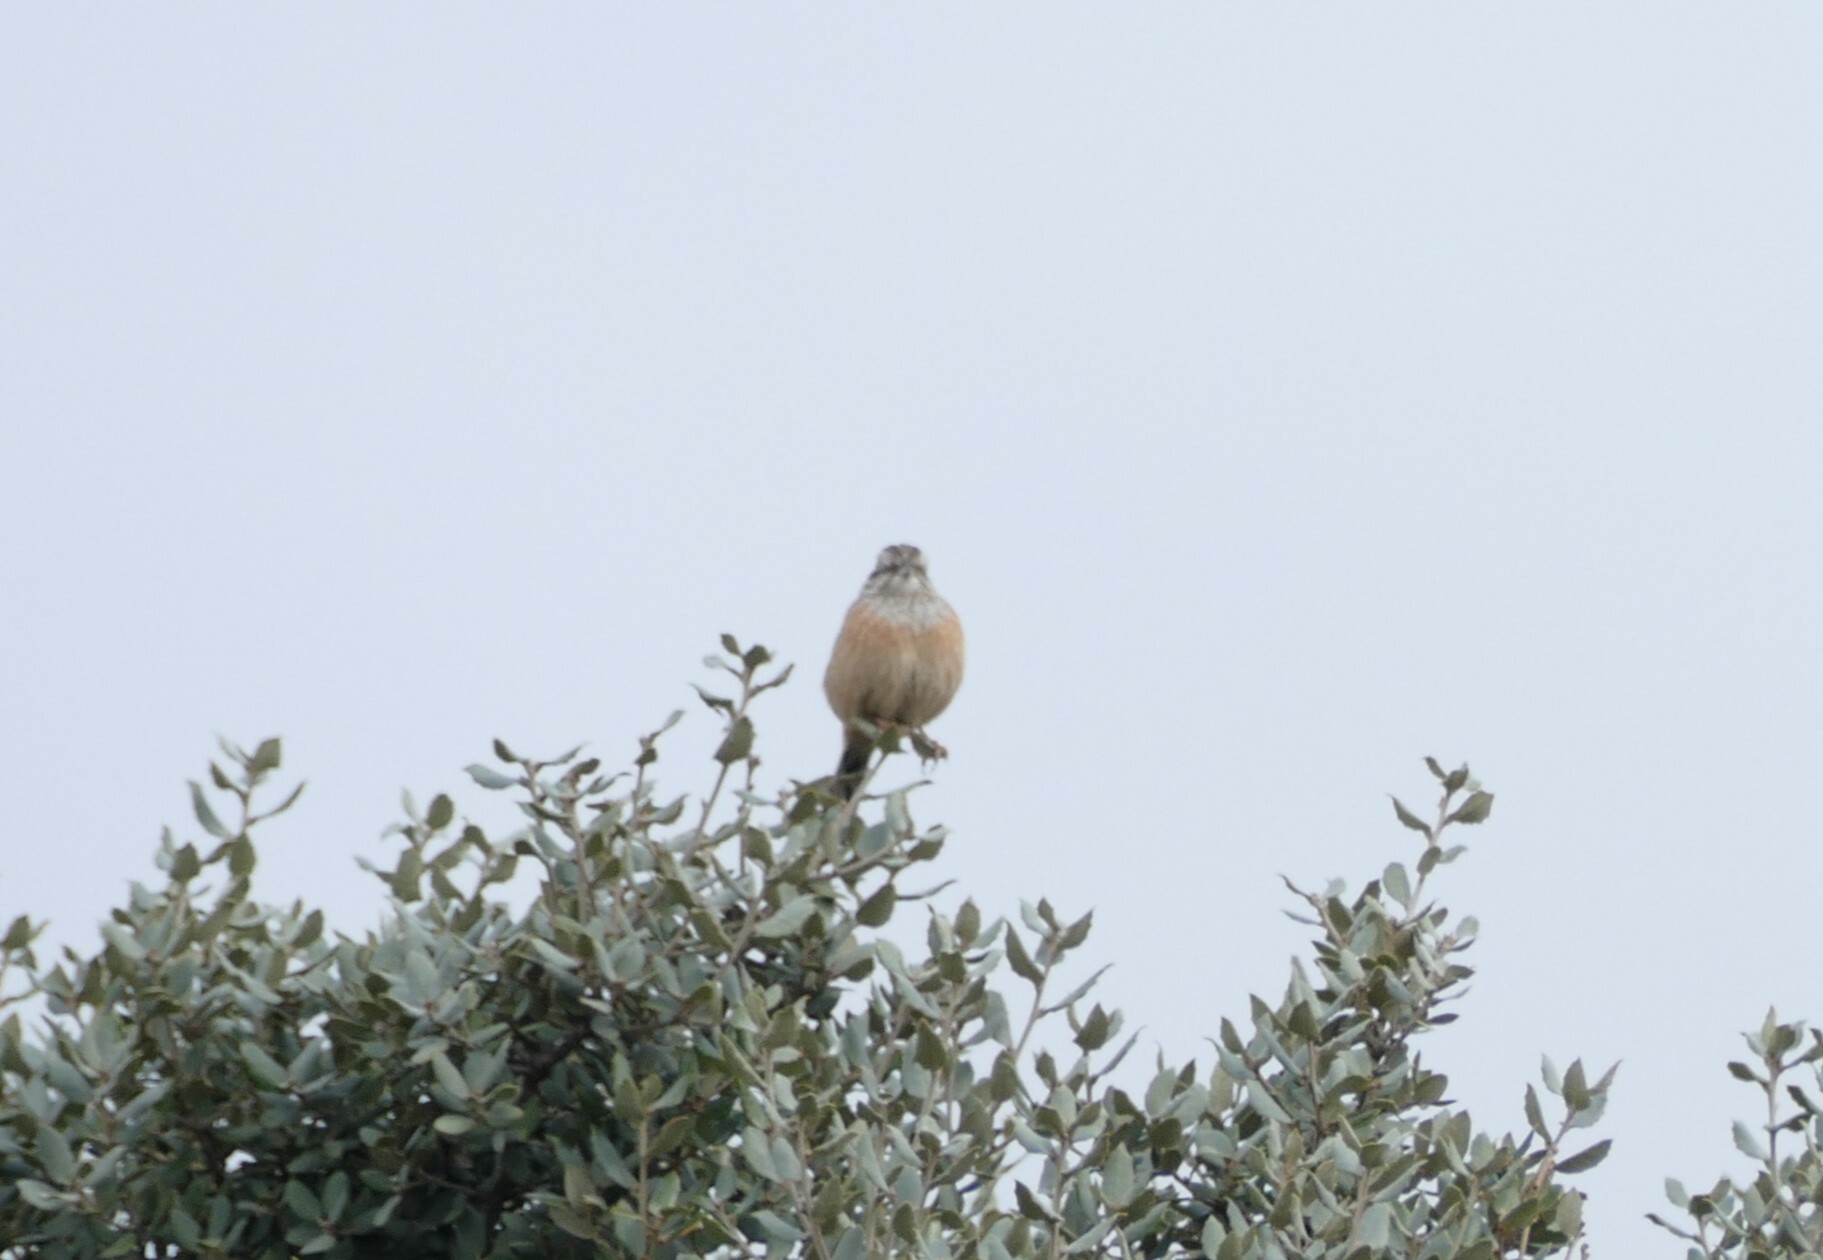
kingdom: Animalia
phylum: Chordata
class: Aves
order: Passeriformes
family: Emberizidae
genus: Emberiza
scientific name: Emberiza cia
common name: Rock bunting
